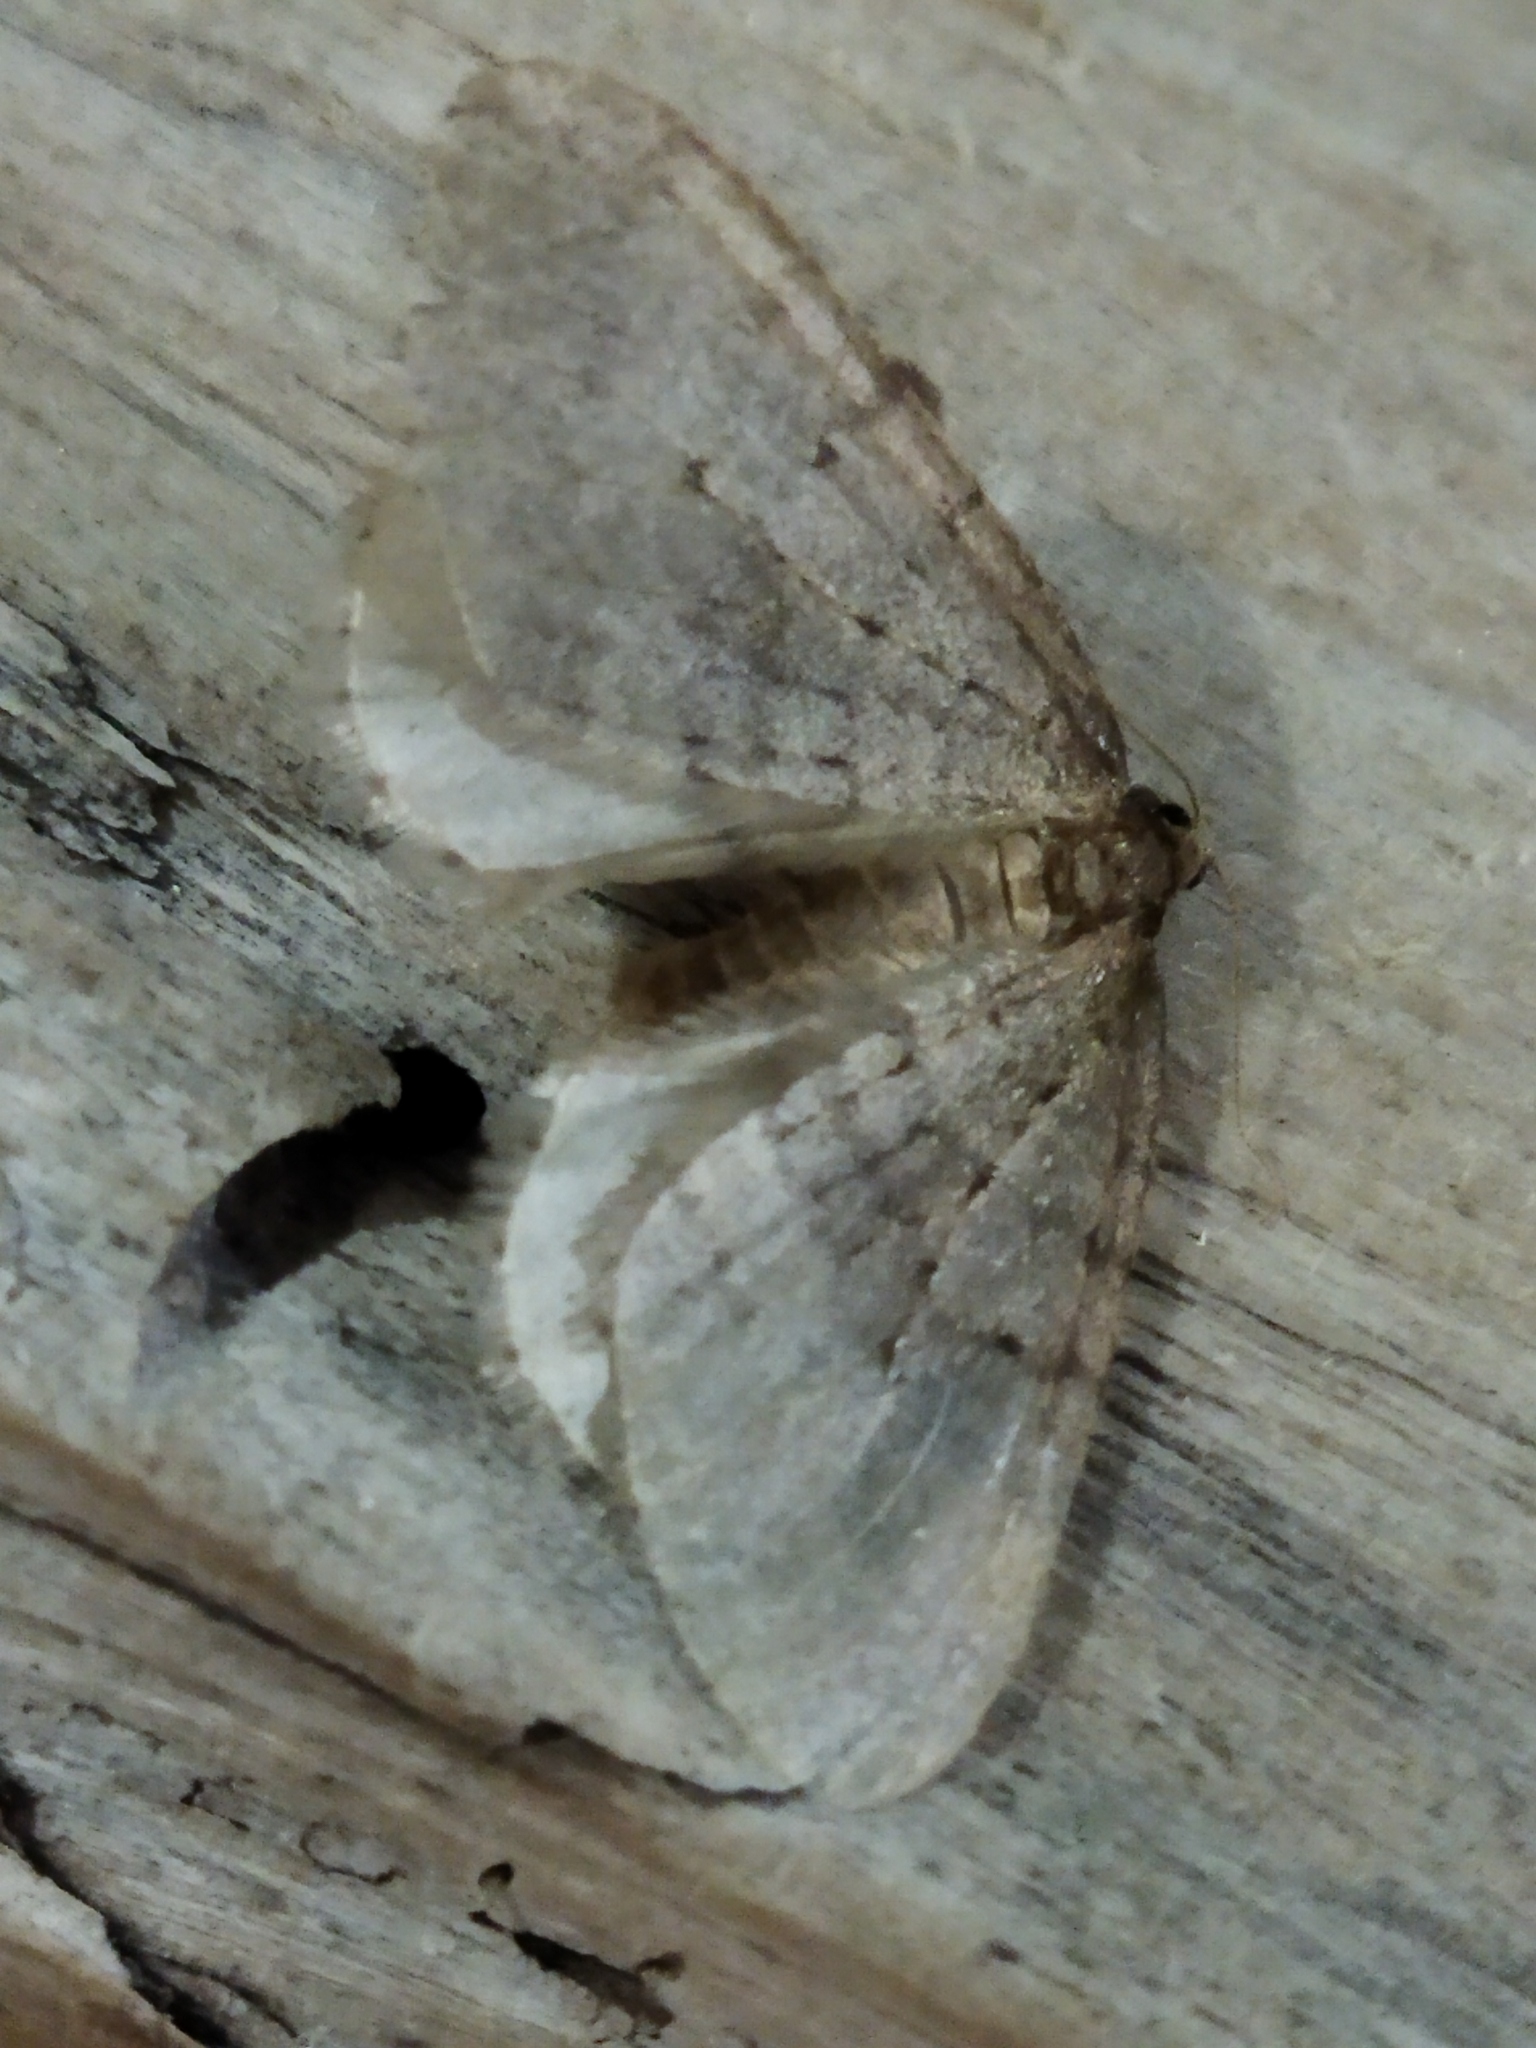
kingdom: Animalia
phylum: Arthropoda
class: Insecta
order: Lepidoptera
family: Geometridae
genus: Operophtera
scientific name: Operophtera brumata
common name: Winter moth
